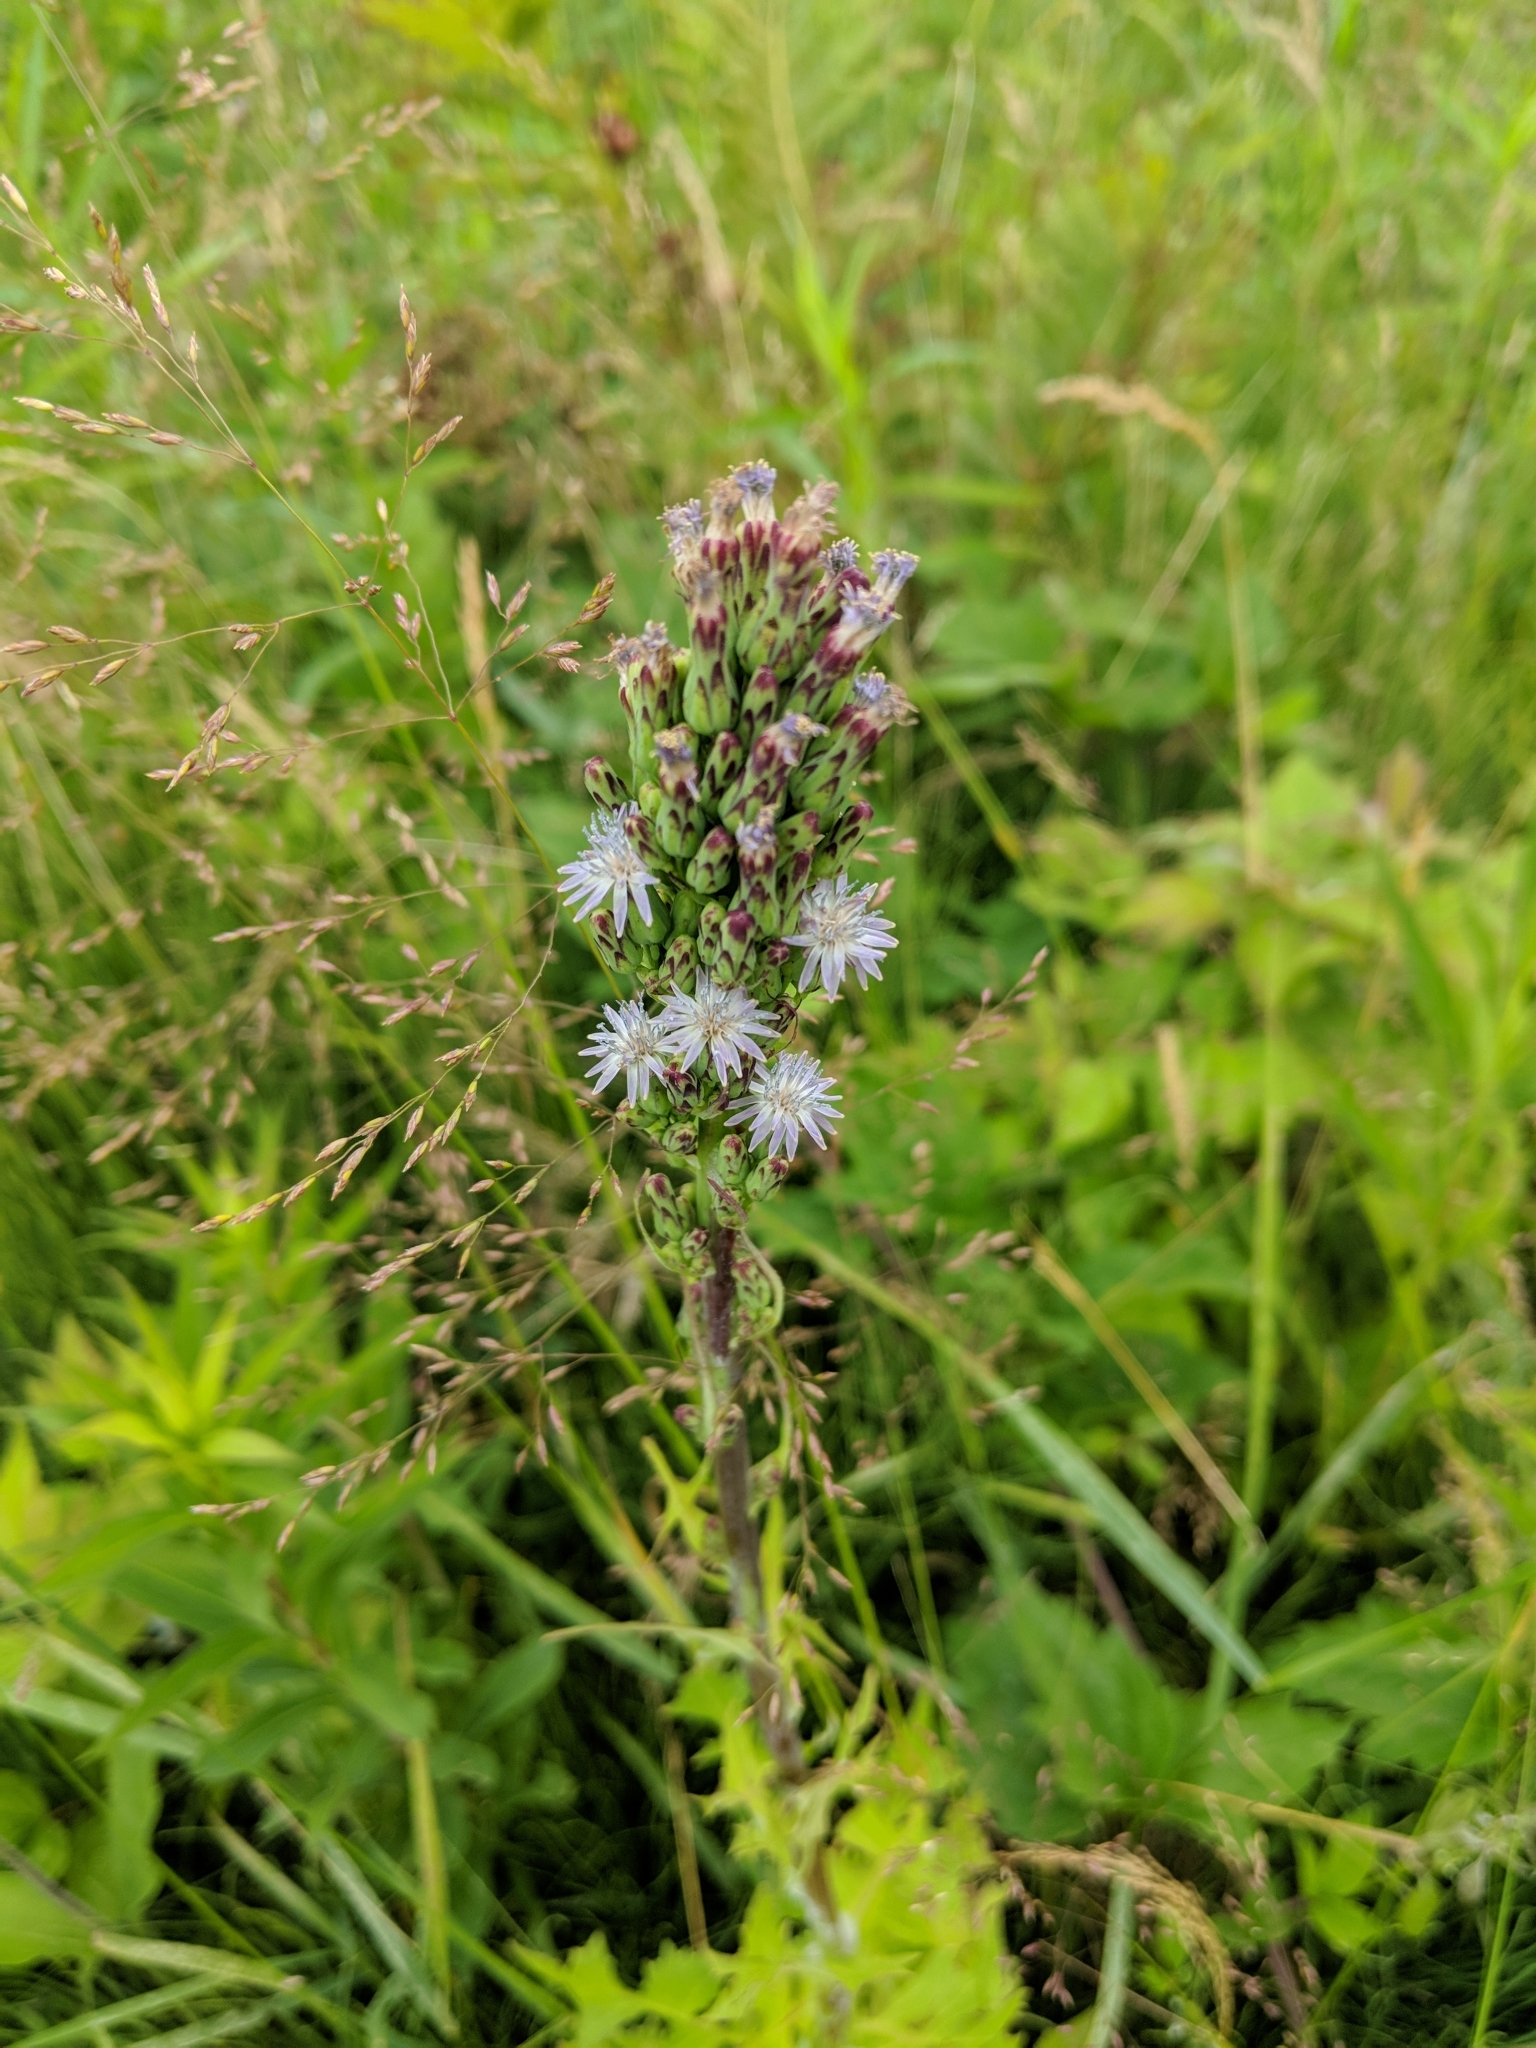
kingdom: Plantae
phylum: Tracheophyta
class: Magnoliopsida
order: Asterales
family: Asteraceae
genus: Lactuca
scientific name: Lactuca biennis
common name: Blue wood lettuce
